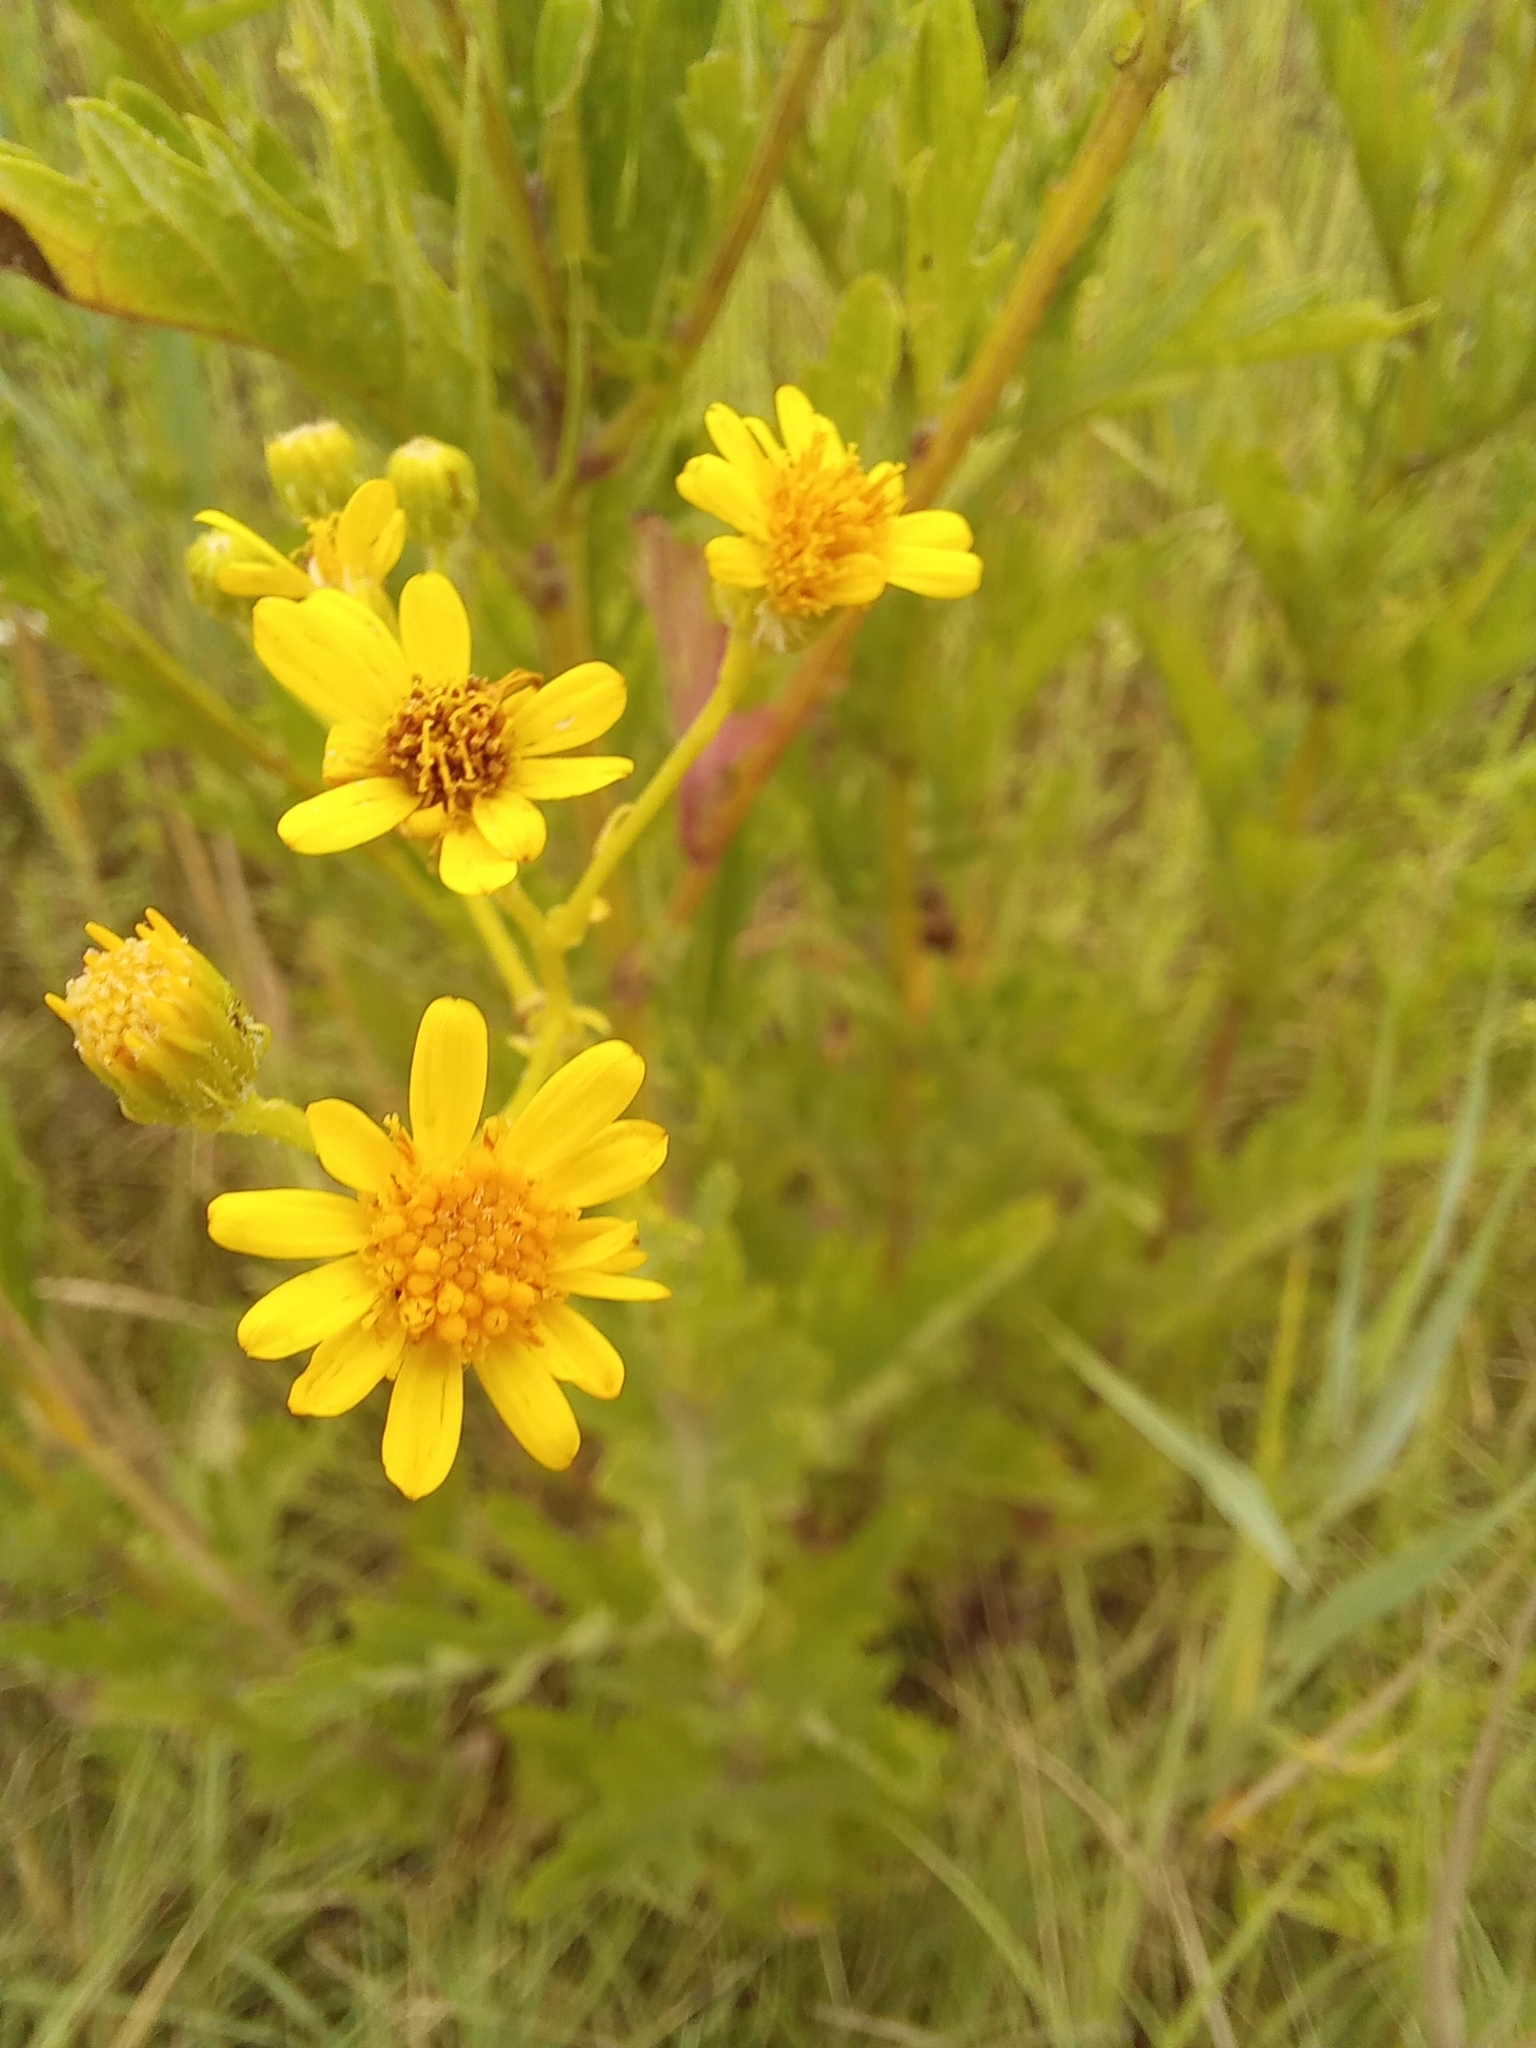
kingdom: Plantae
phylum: Tracheophyta
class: Magnoliopsida
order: Asterales
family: Asteraceae
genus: Jacobaea
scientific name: Jacobaea erucifolia
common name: Hoary ragwort
